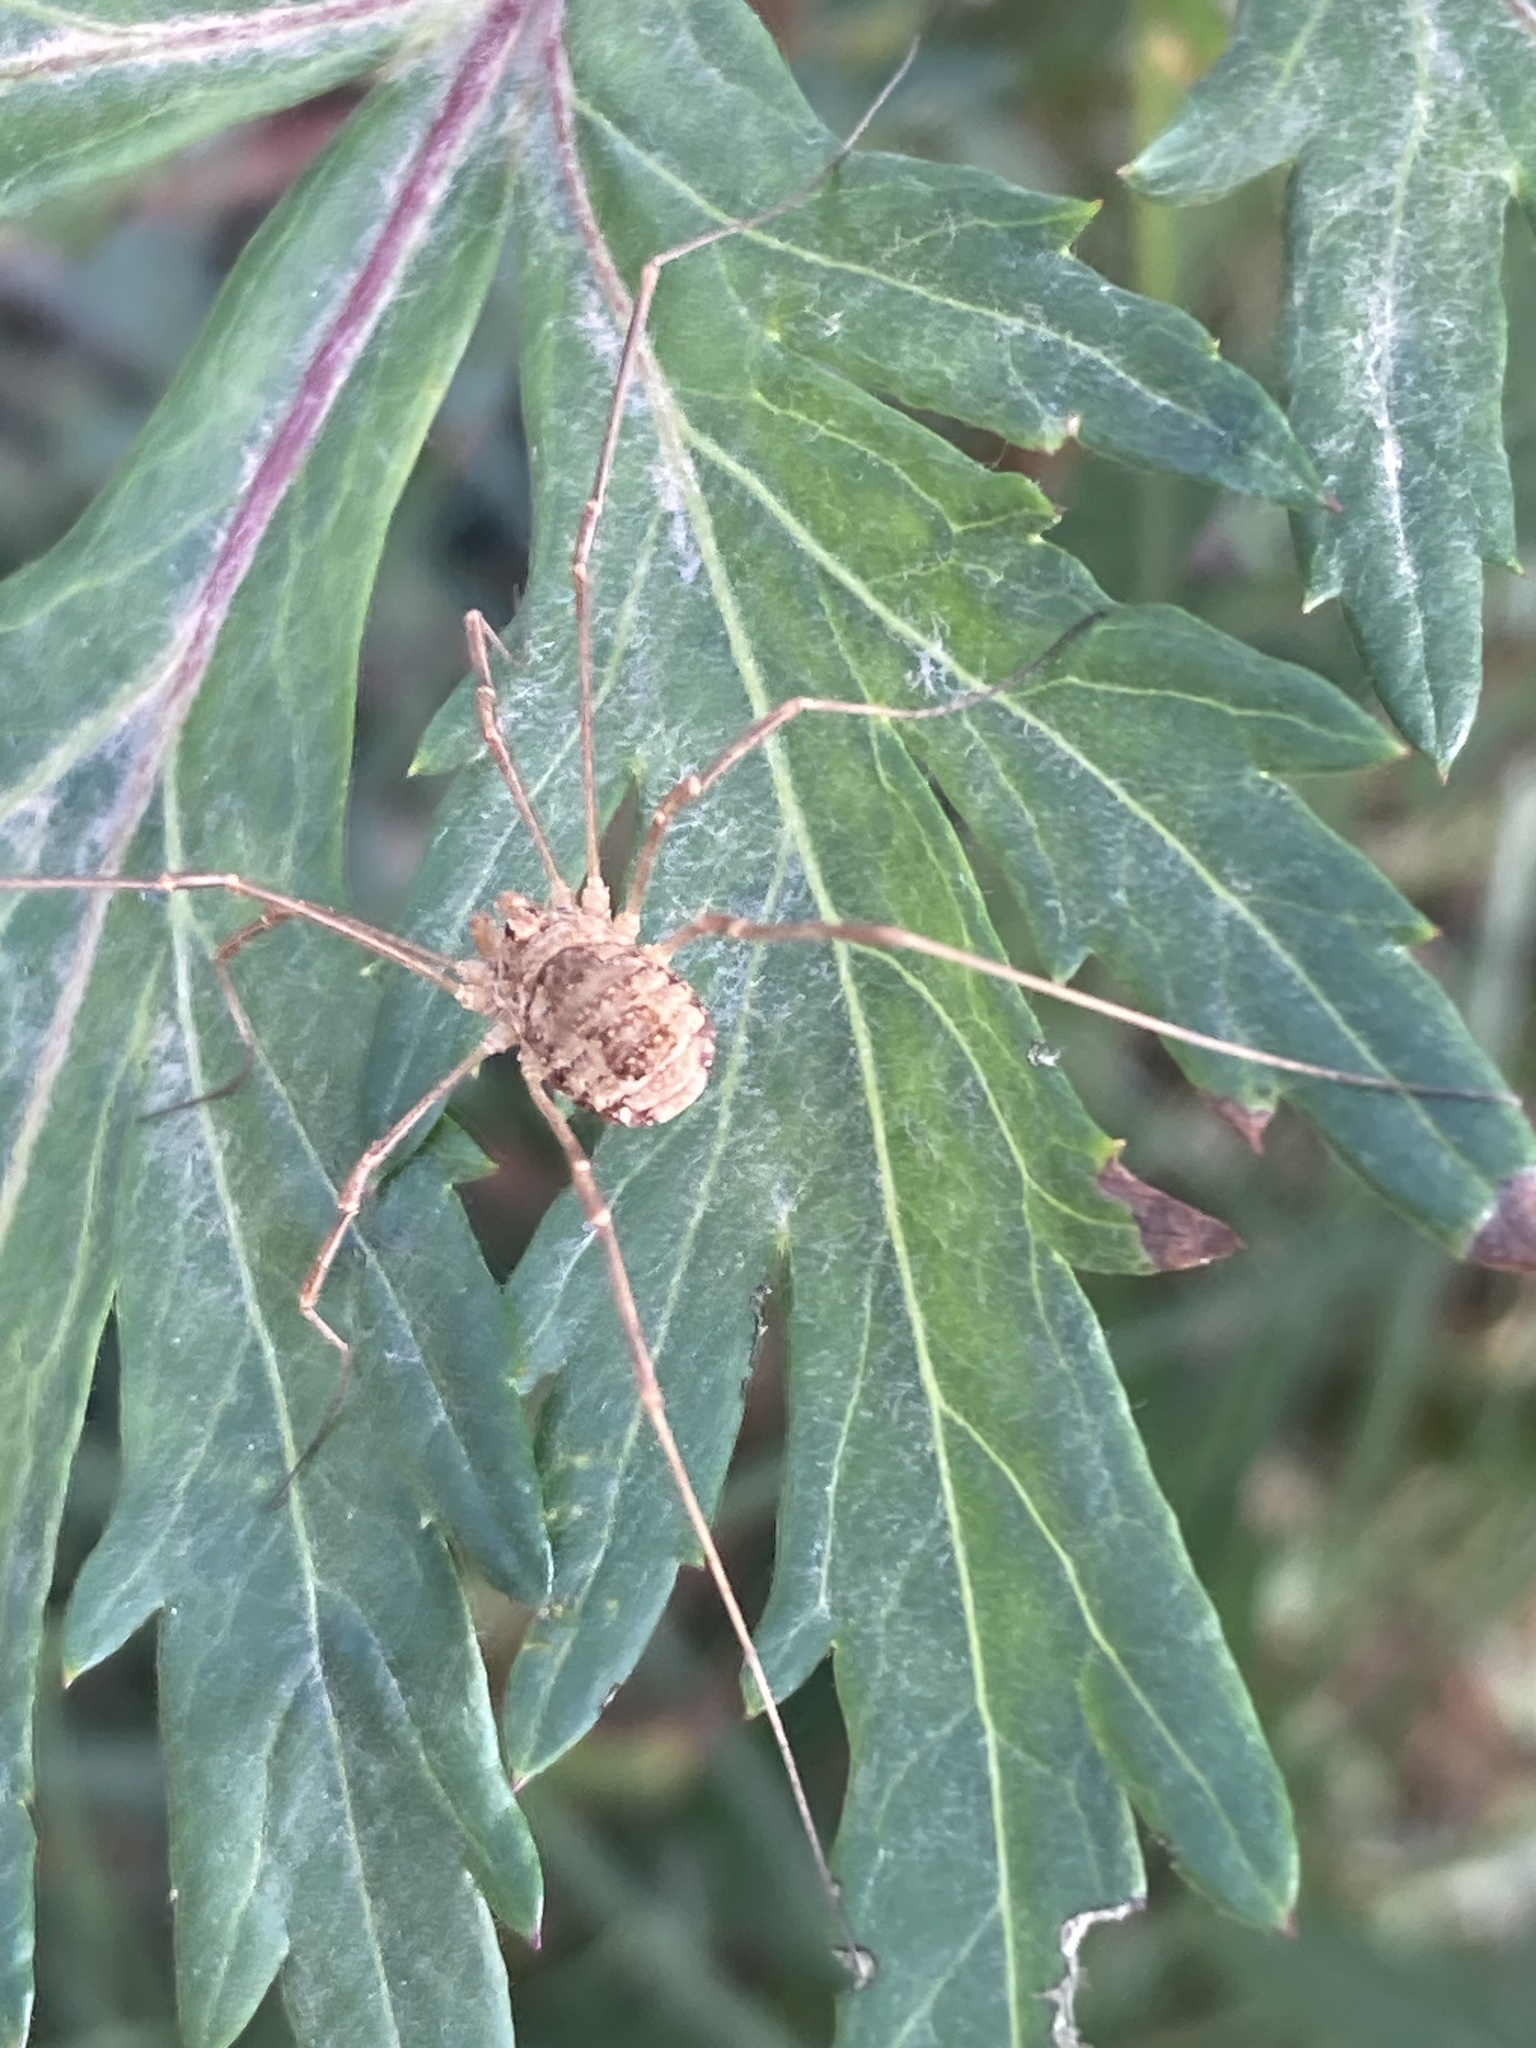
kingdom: Animalia
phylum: Arthropoda
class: Arachnida
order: Opiliones
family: Phalangiidae
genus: Rilaena
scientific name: Rilaena triangularis
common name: Spring harvestman
